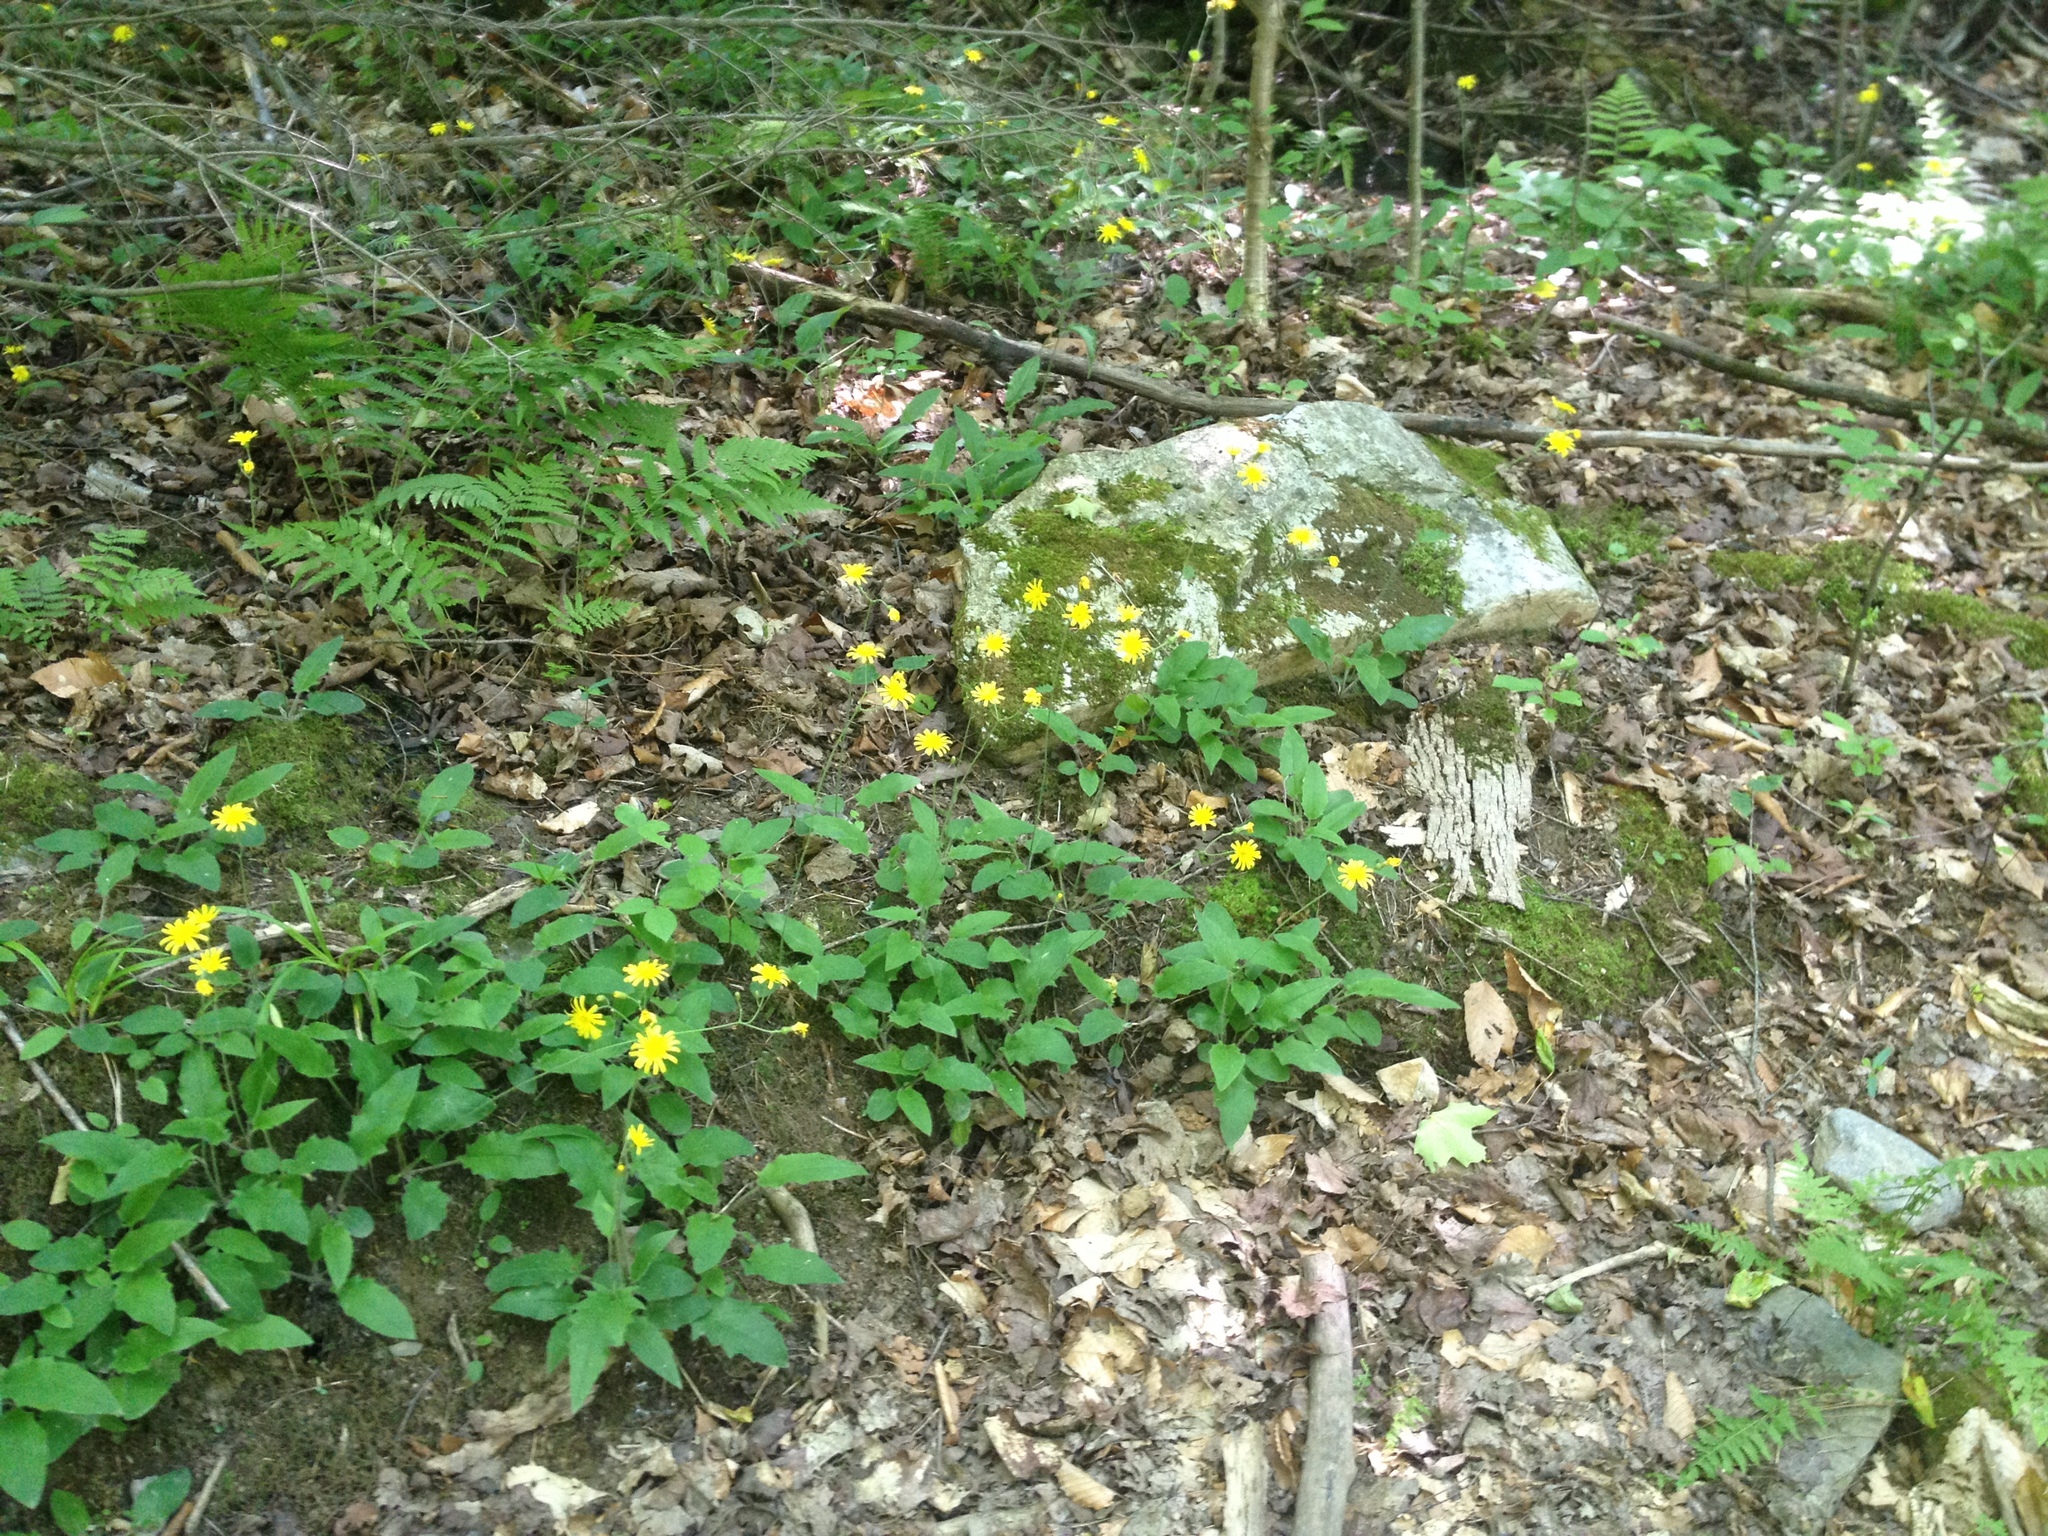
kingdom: Plantae
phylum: Tracheophyta
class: Magnoliopsida
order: Asterales
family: Asteraceae
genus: Hieracium
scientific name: Hieracium murorum
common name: Wall hawkweed
